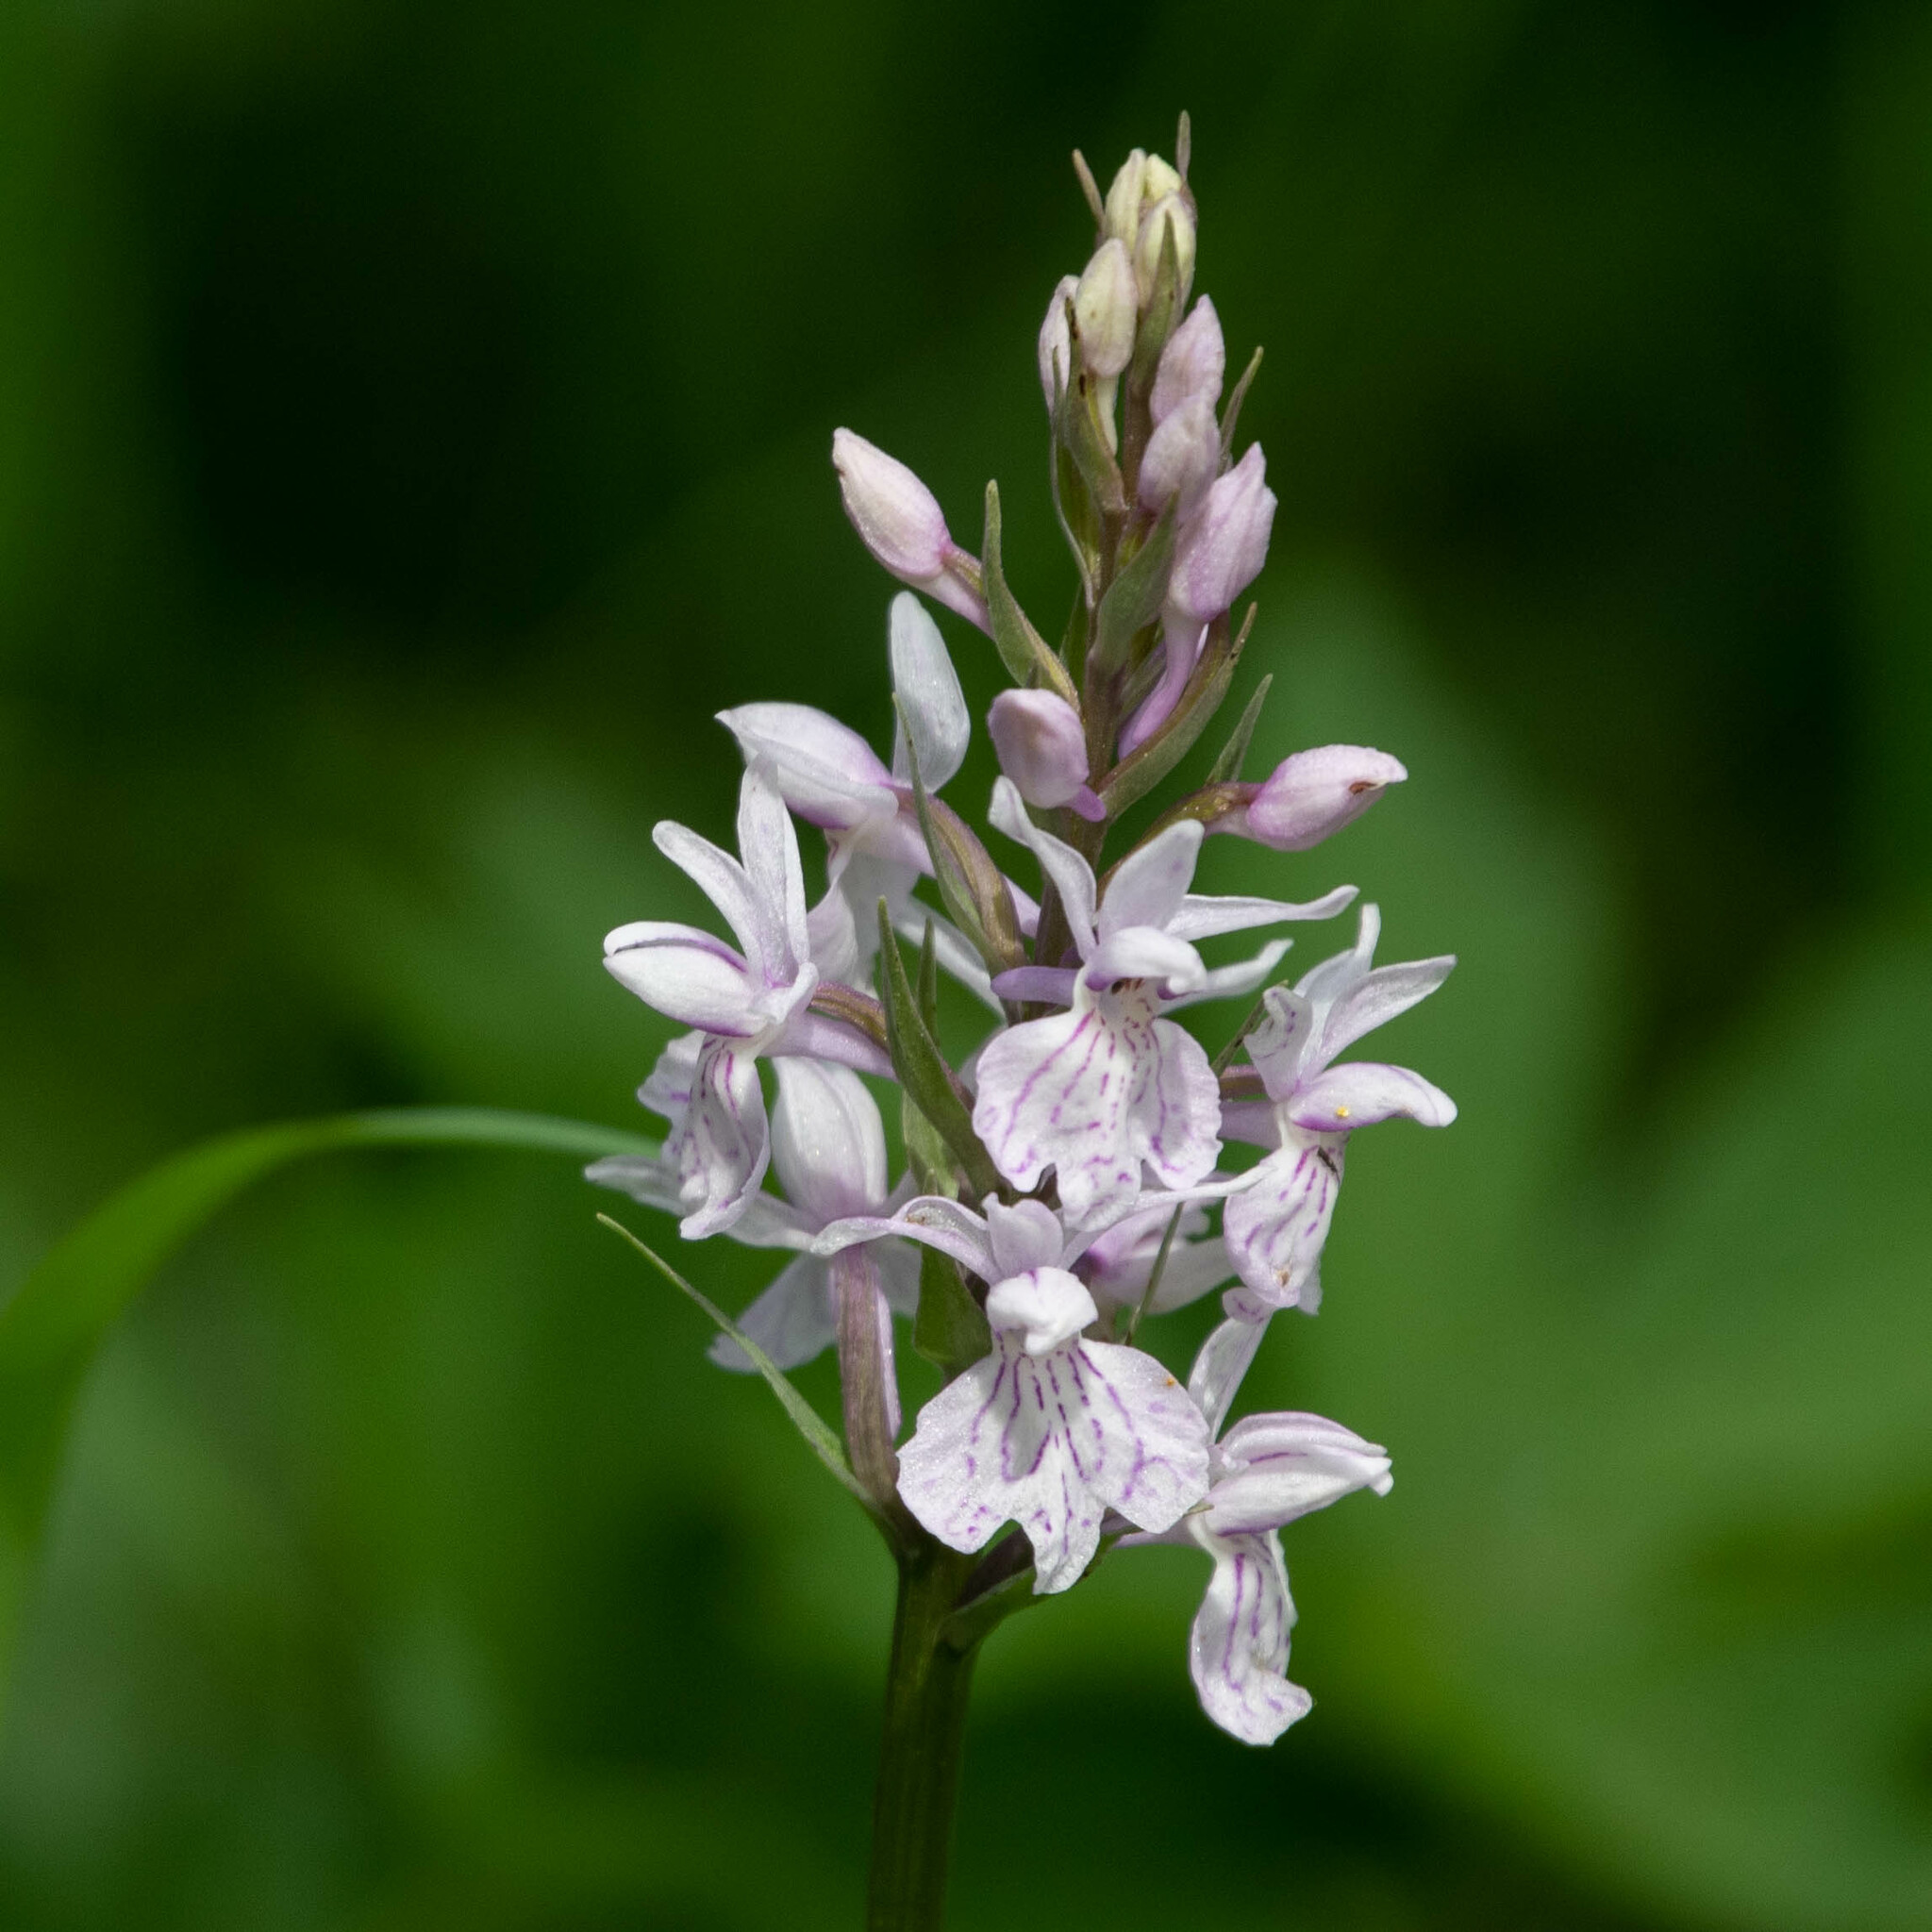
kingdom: Plantae
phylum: Tracheophyta
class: Liliopsida
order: Asparagales
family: Orchidaceae
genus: Dactylorhiza
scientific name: Dactylorhiza maculata
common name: Heath spotted-orchid
